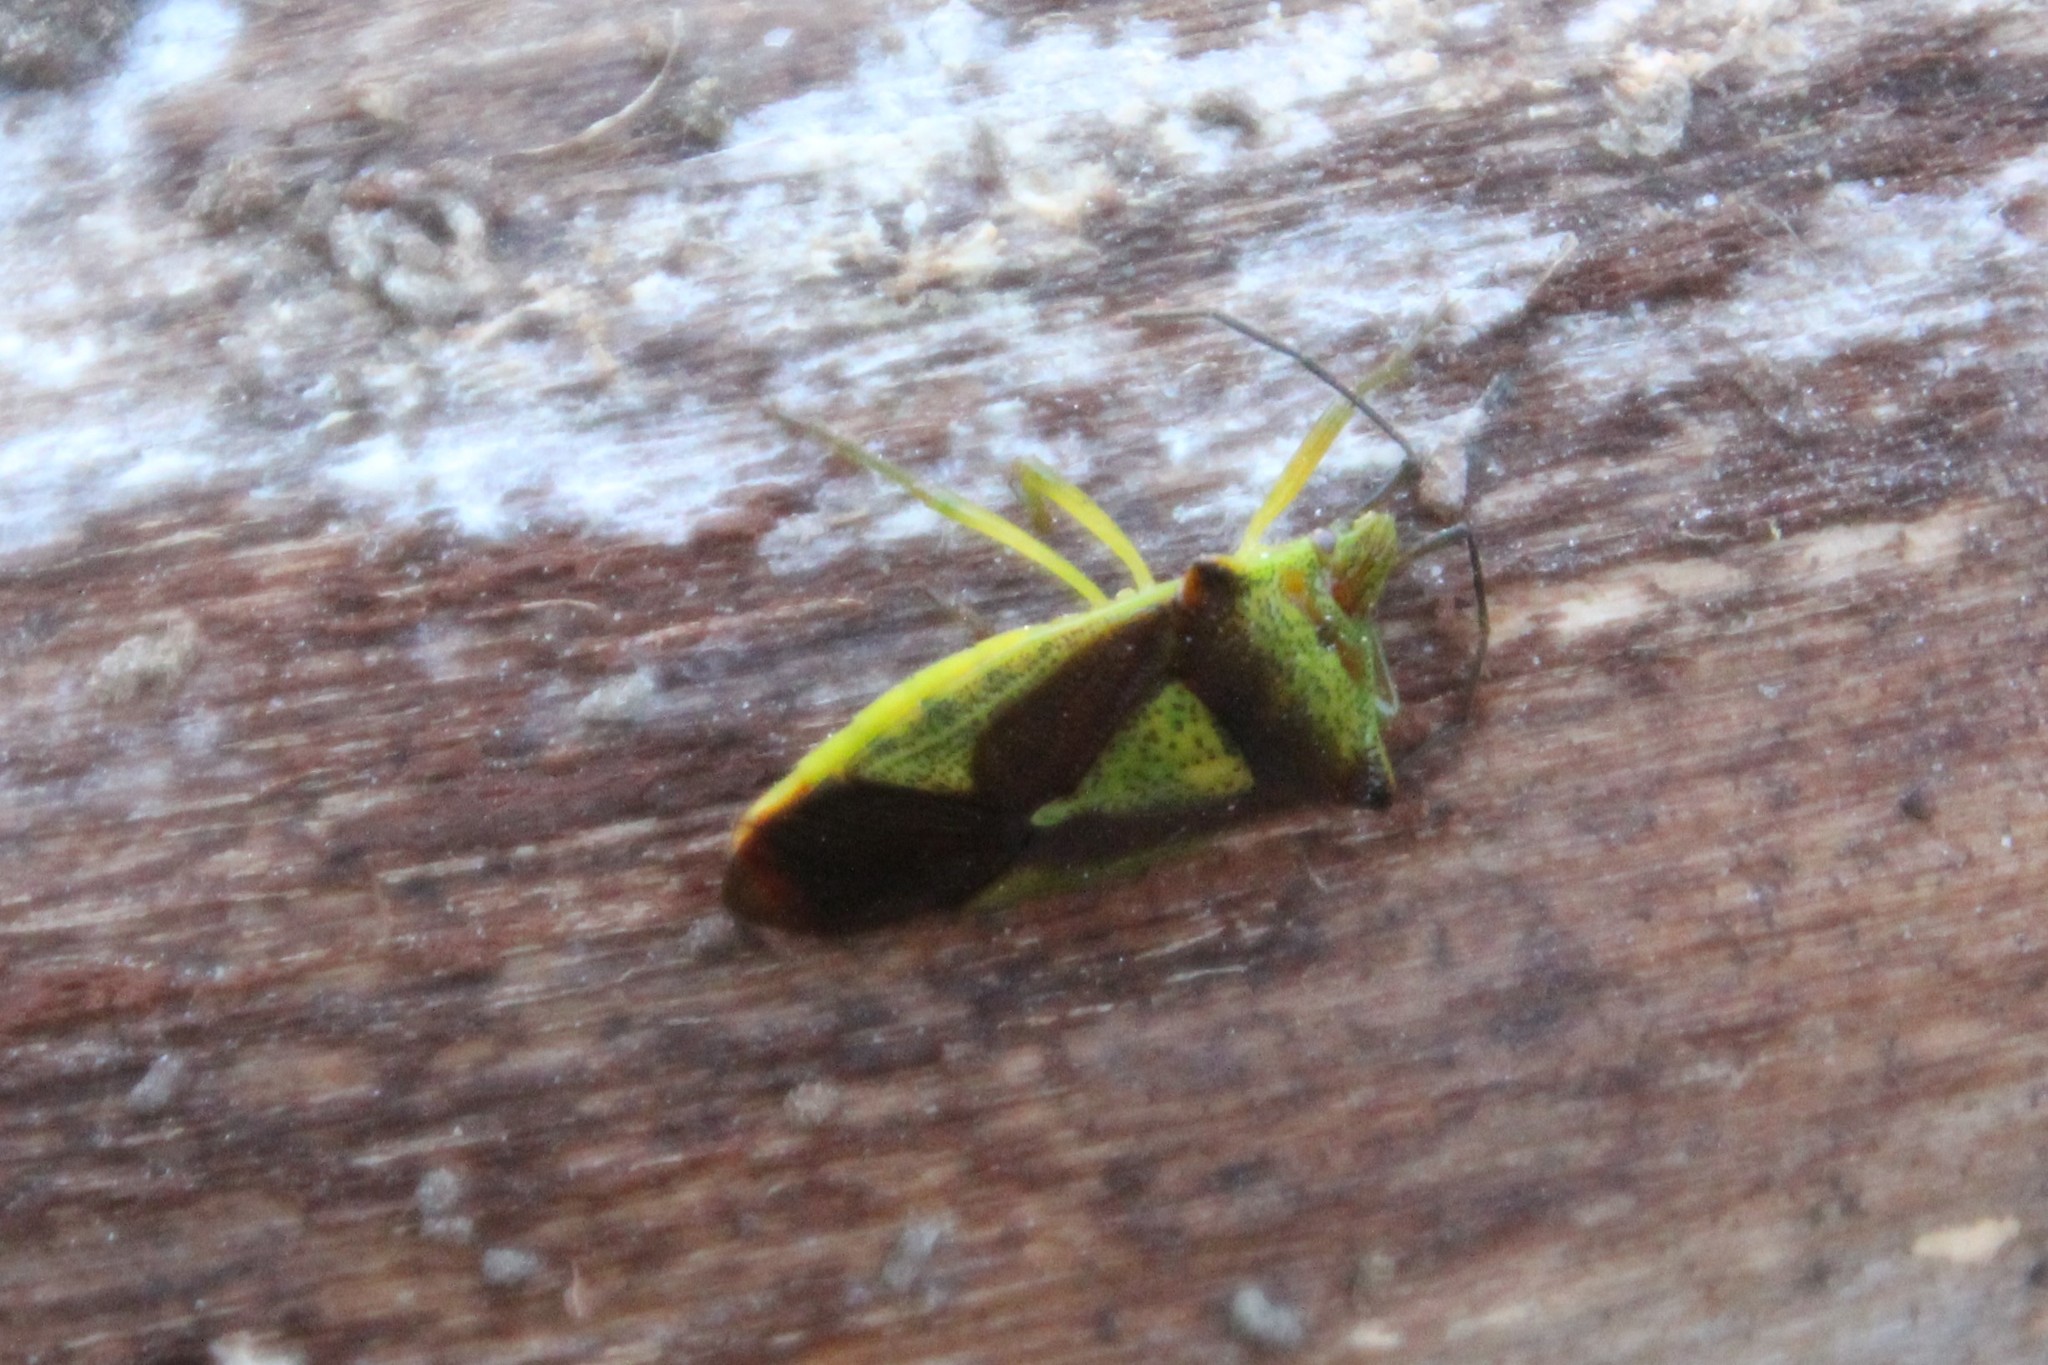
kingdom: Animalia
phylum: Arthropoda
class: Insecta
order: Hemiptera
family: Acanthosomatidae
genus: Acanthosoma
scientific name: Acanthosoma haemorrhoidale
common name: Hawthorn shieldbug
